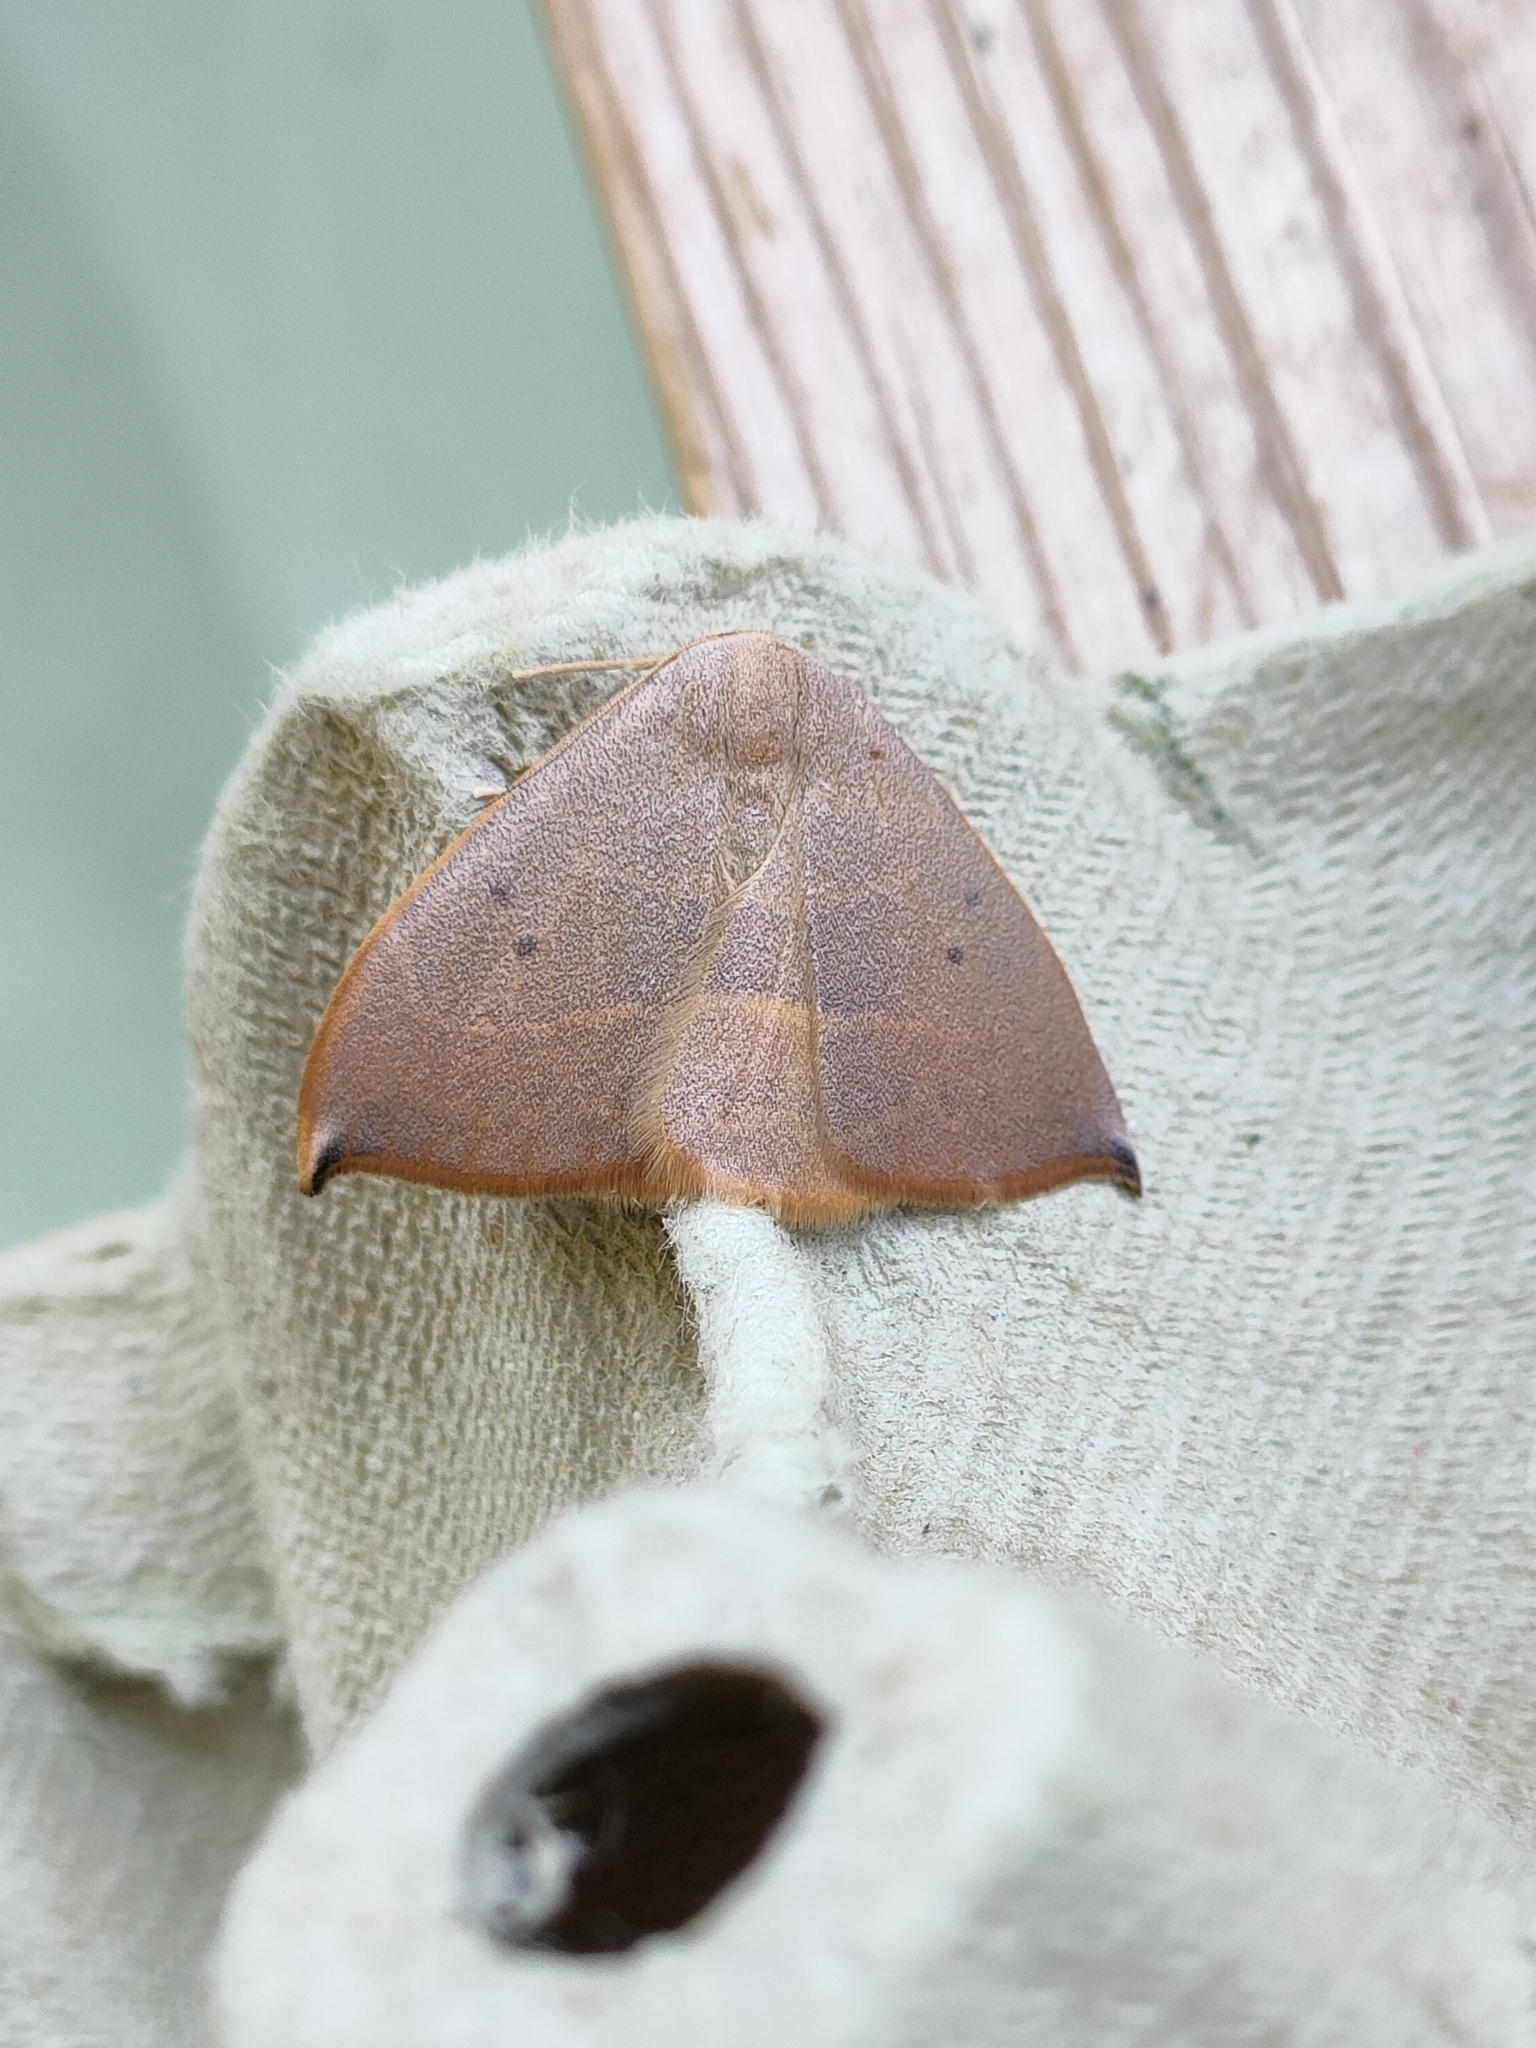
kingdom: Animalia
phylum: Arthropoda
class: Insecta
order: Lepidoptera
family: Drepanidae
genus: Watsonalla
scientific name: Watsonalla uncinula
